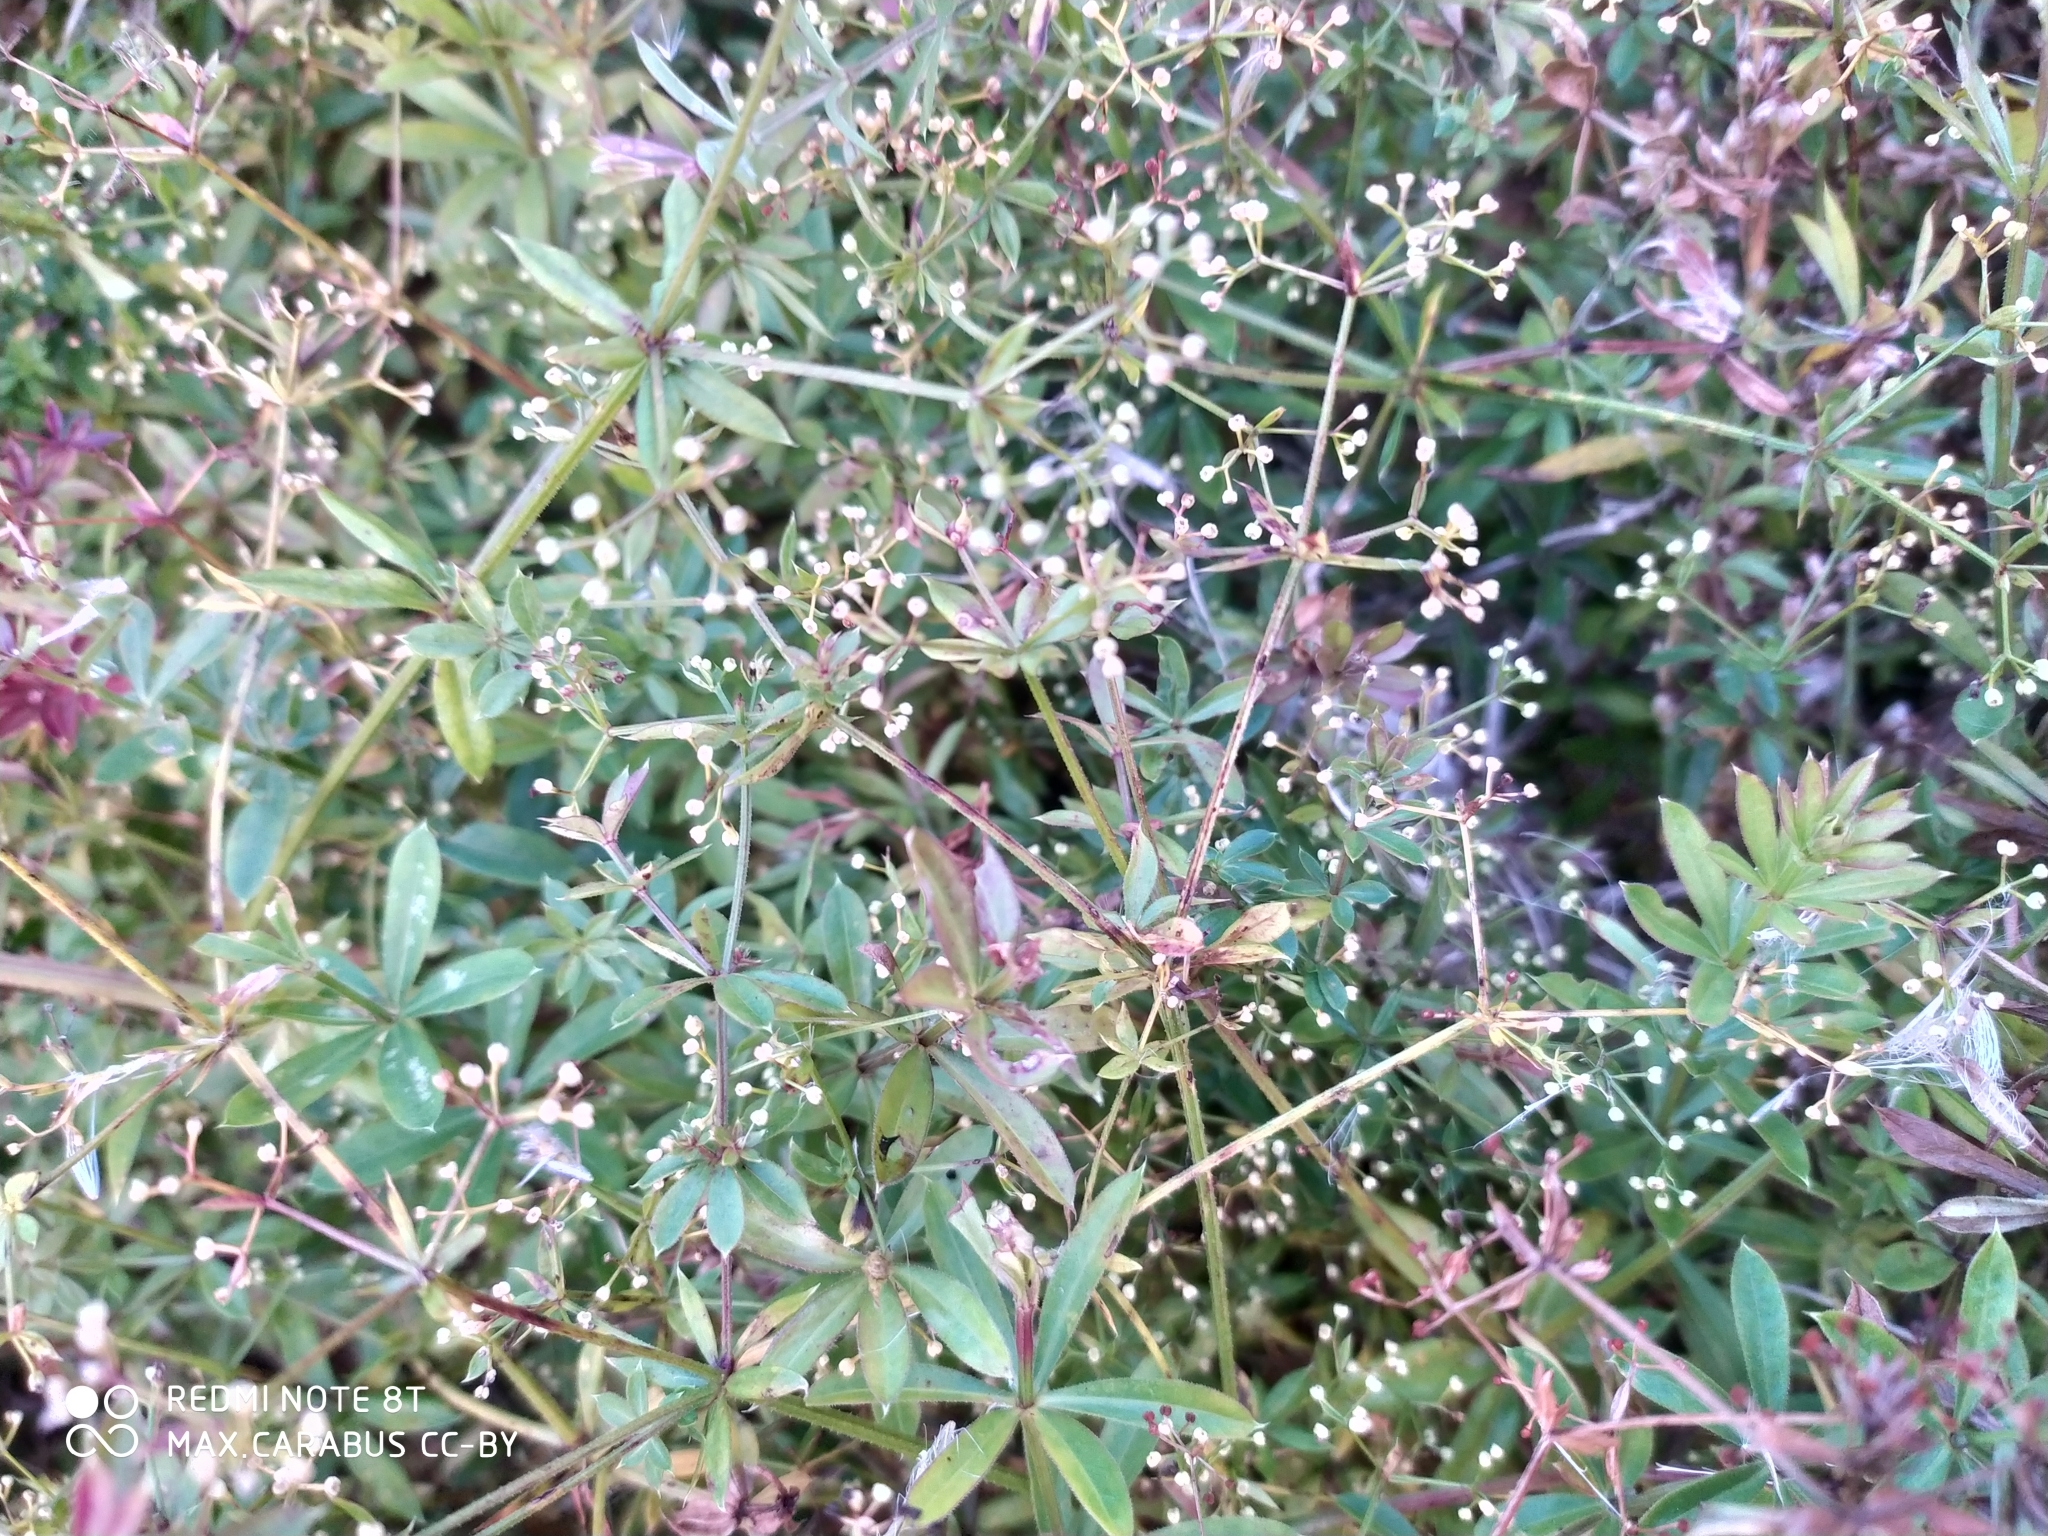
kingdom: Plantae
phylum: Tracheophyta
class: Magnoliopsida
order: Gentianales
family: Rubiaceae
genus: Galium
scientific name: Galium rivale
